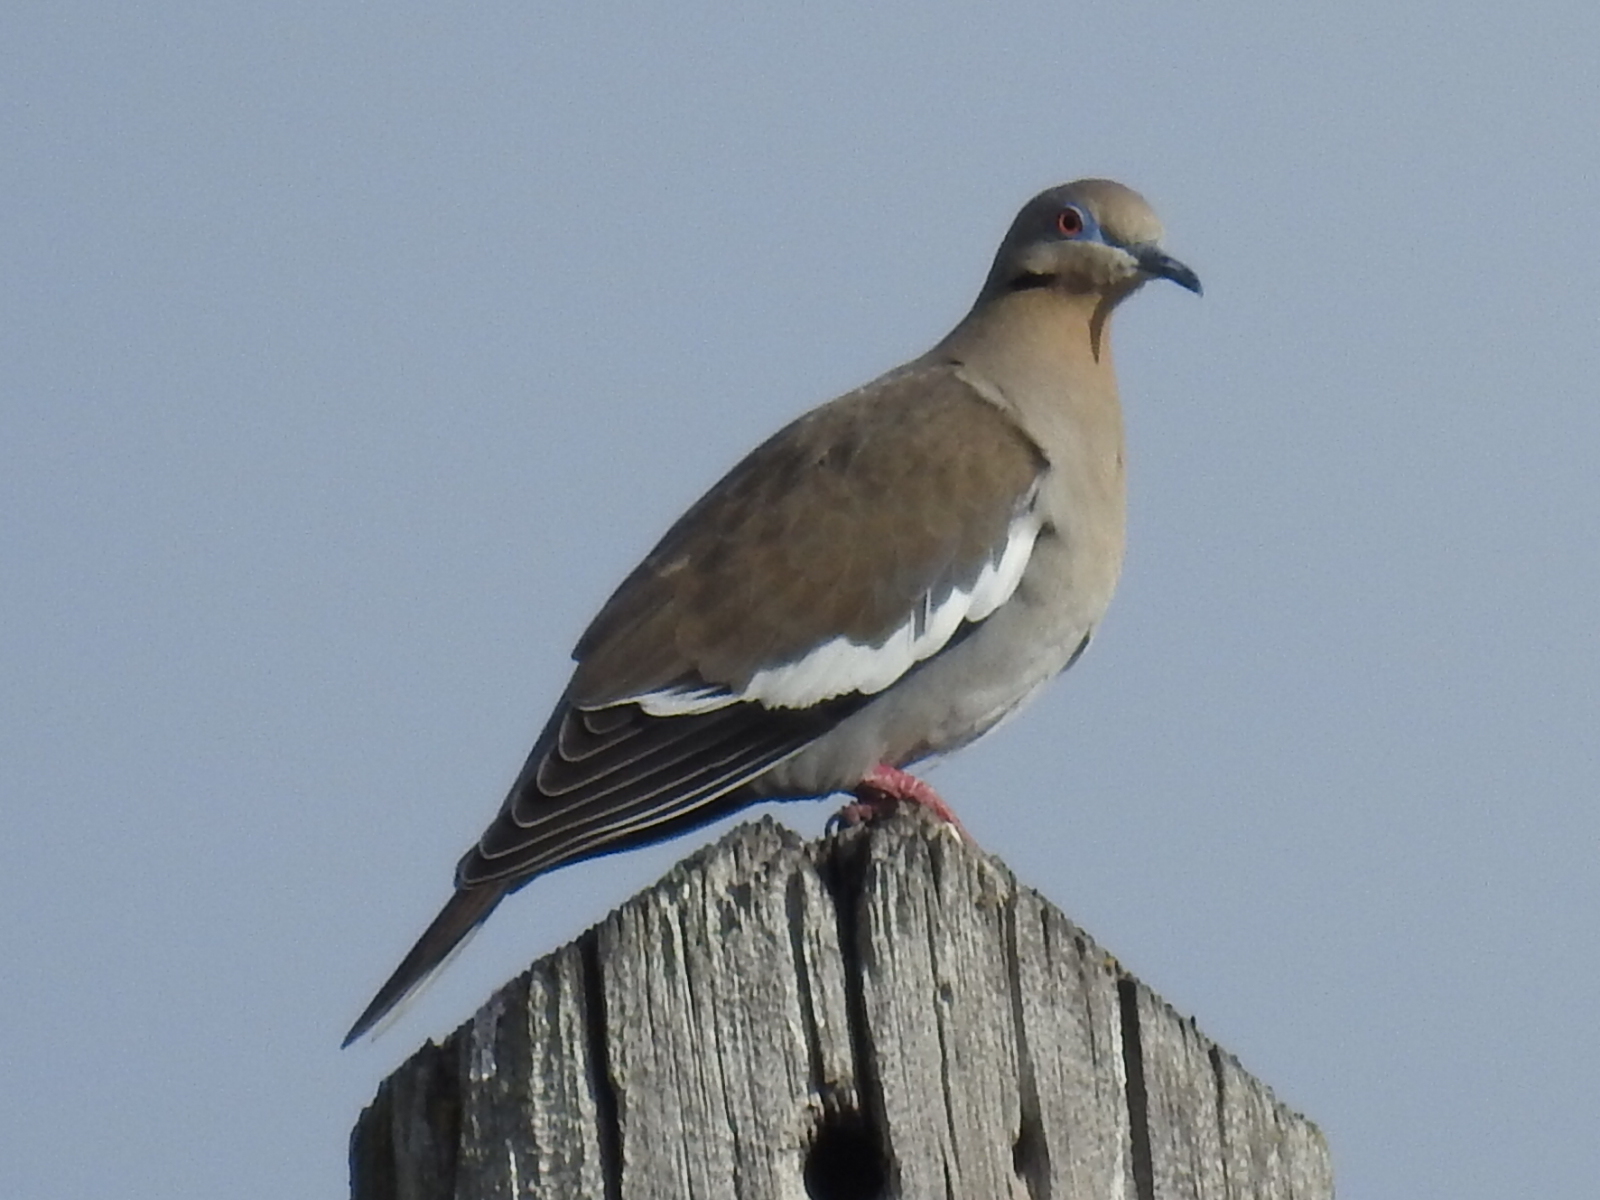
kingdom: Animalia
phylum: Chordata
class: Aves
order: Columbiformes
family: Columbidae
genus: Zenaida
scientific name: Zenaida asiatica
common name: White-winged dove
